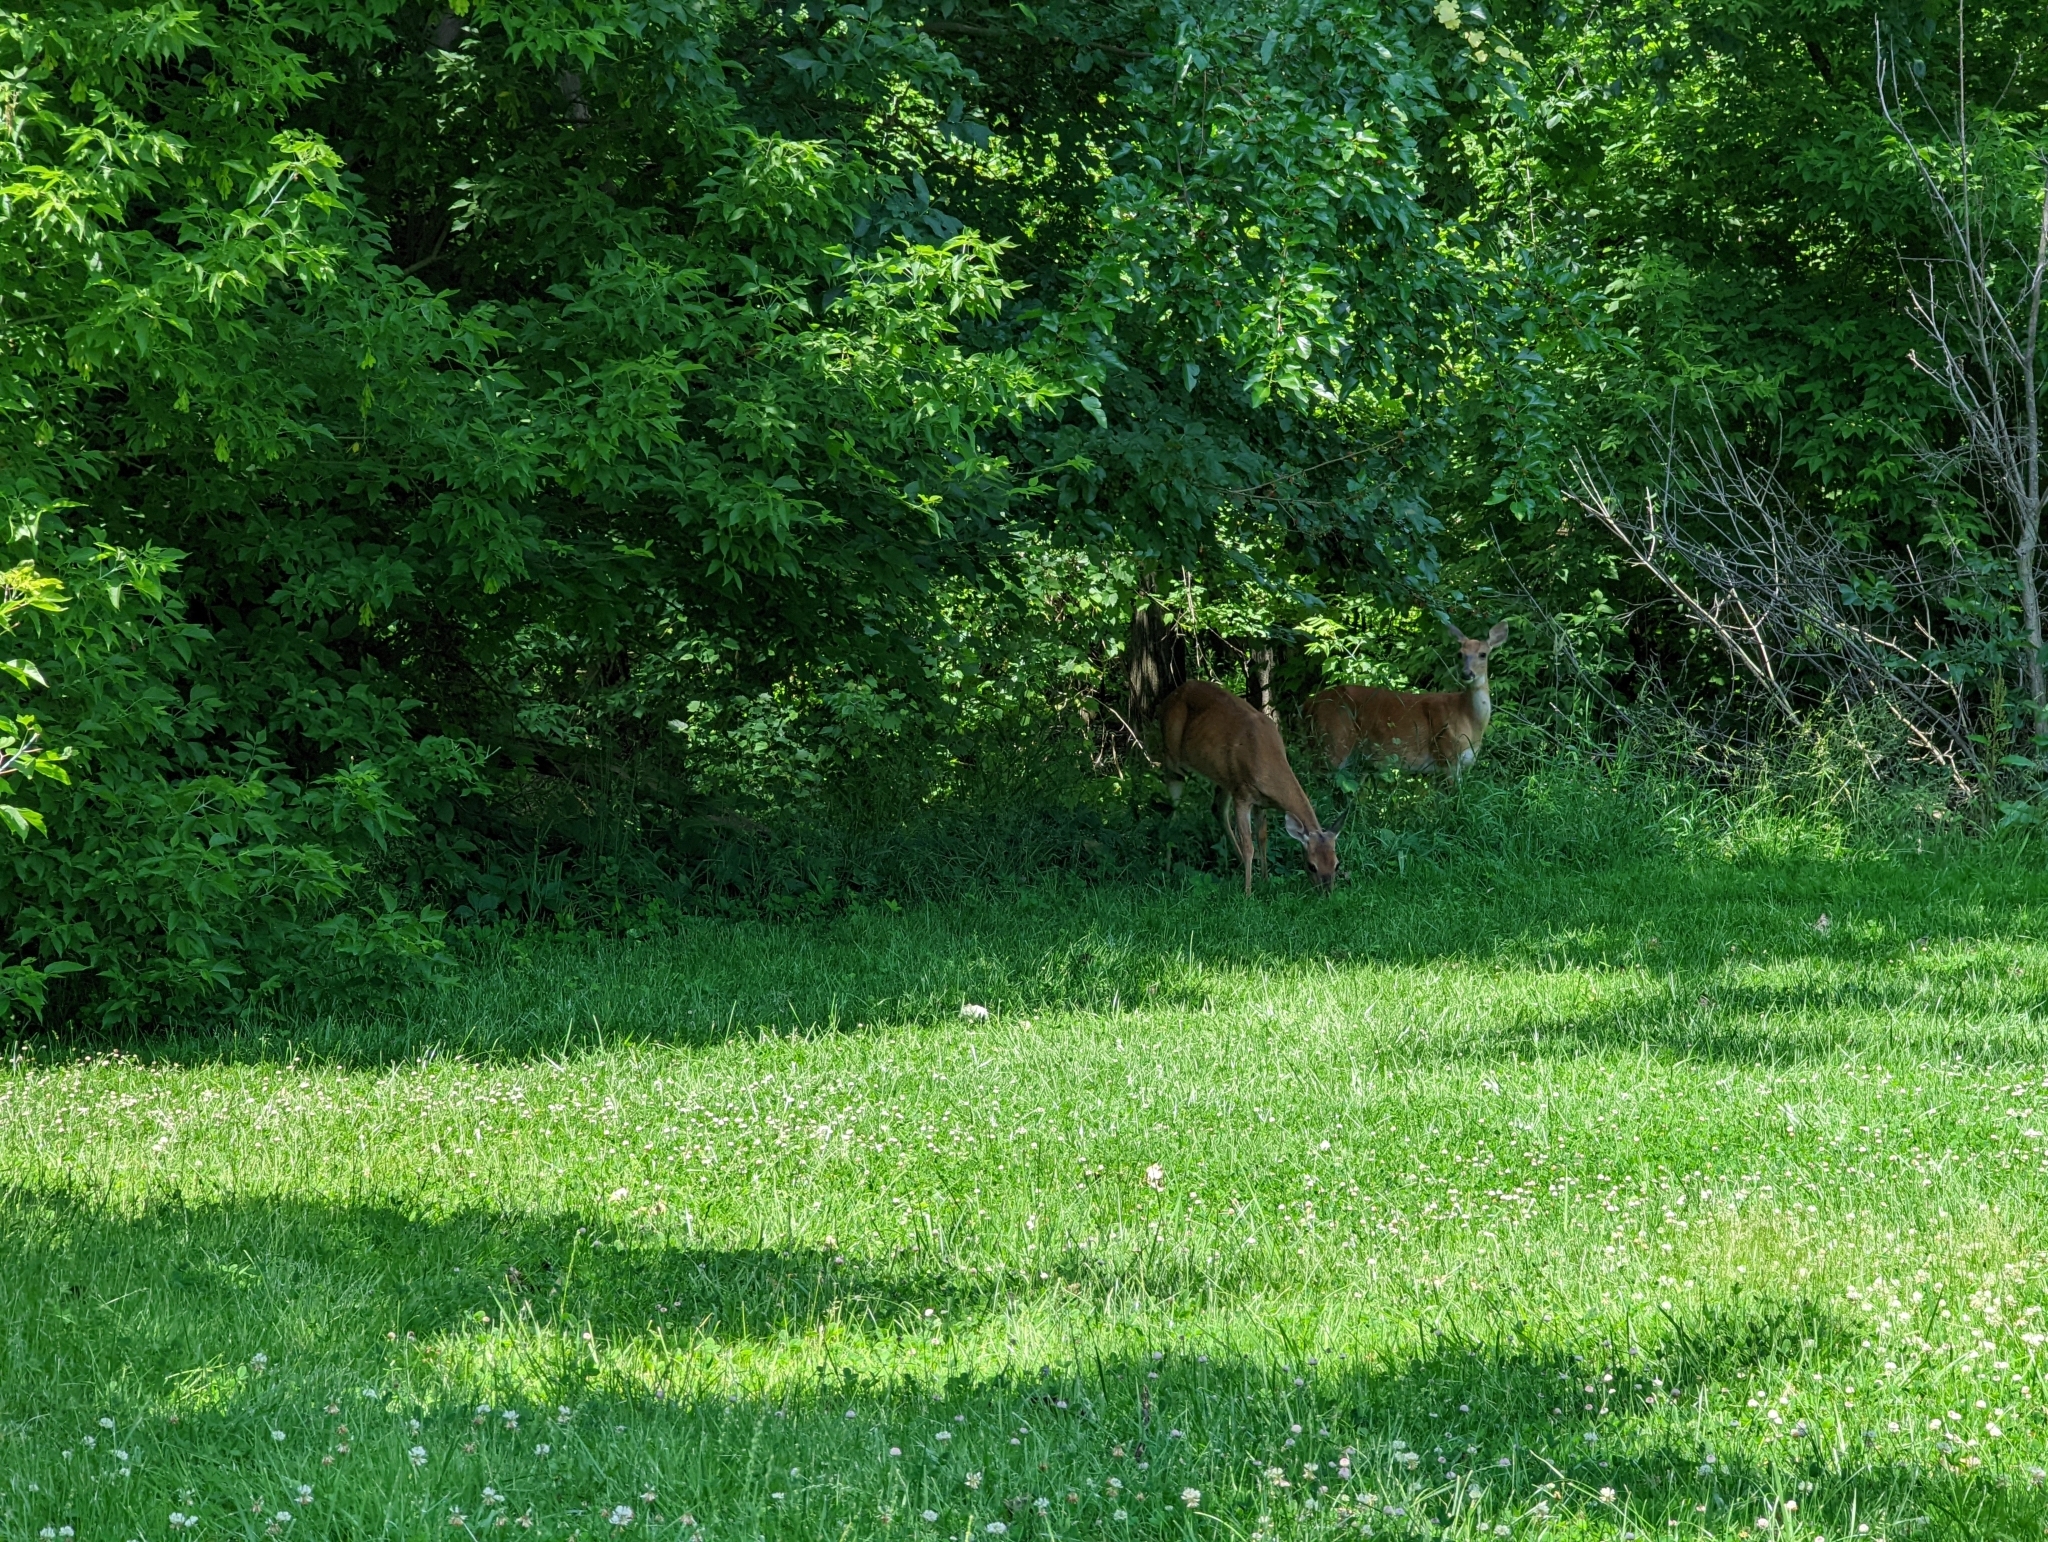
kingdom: Animalia
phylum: Chordata
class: Mammalia
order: Artiodactyla
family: Cervidae
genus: Odocoileus
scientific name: Odocoileus virginianus
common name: White-tailed deer
